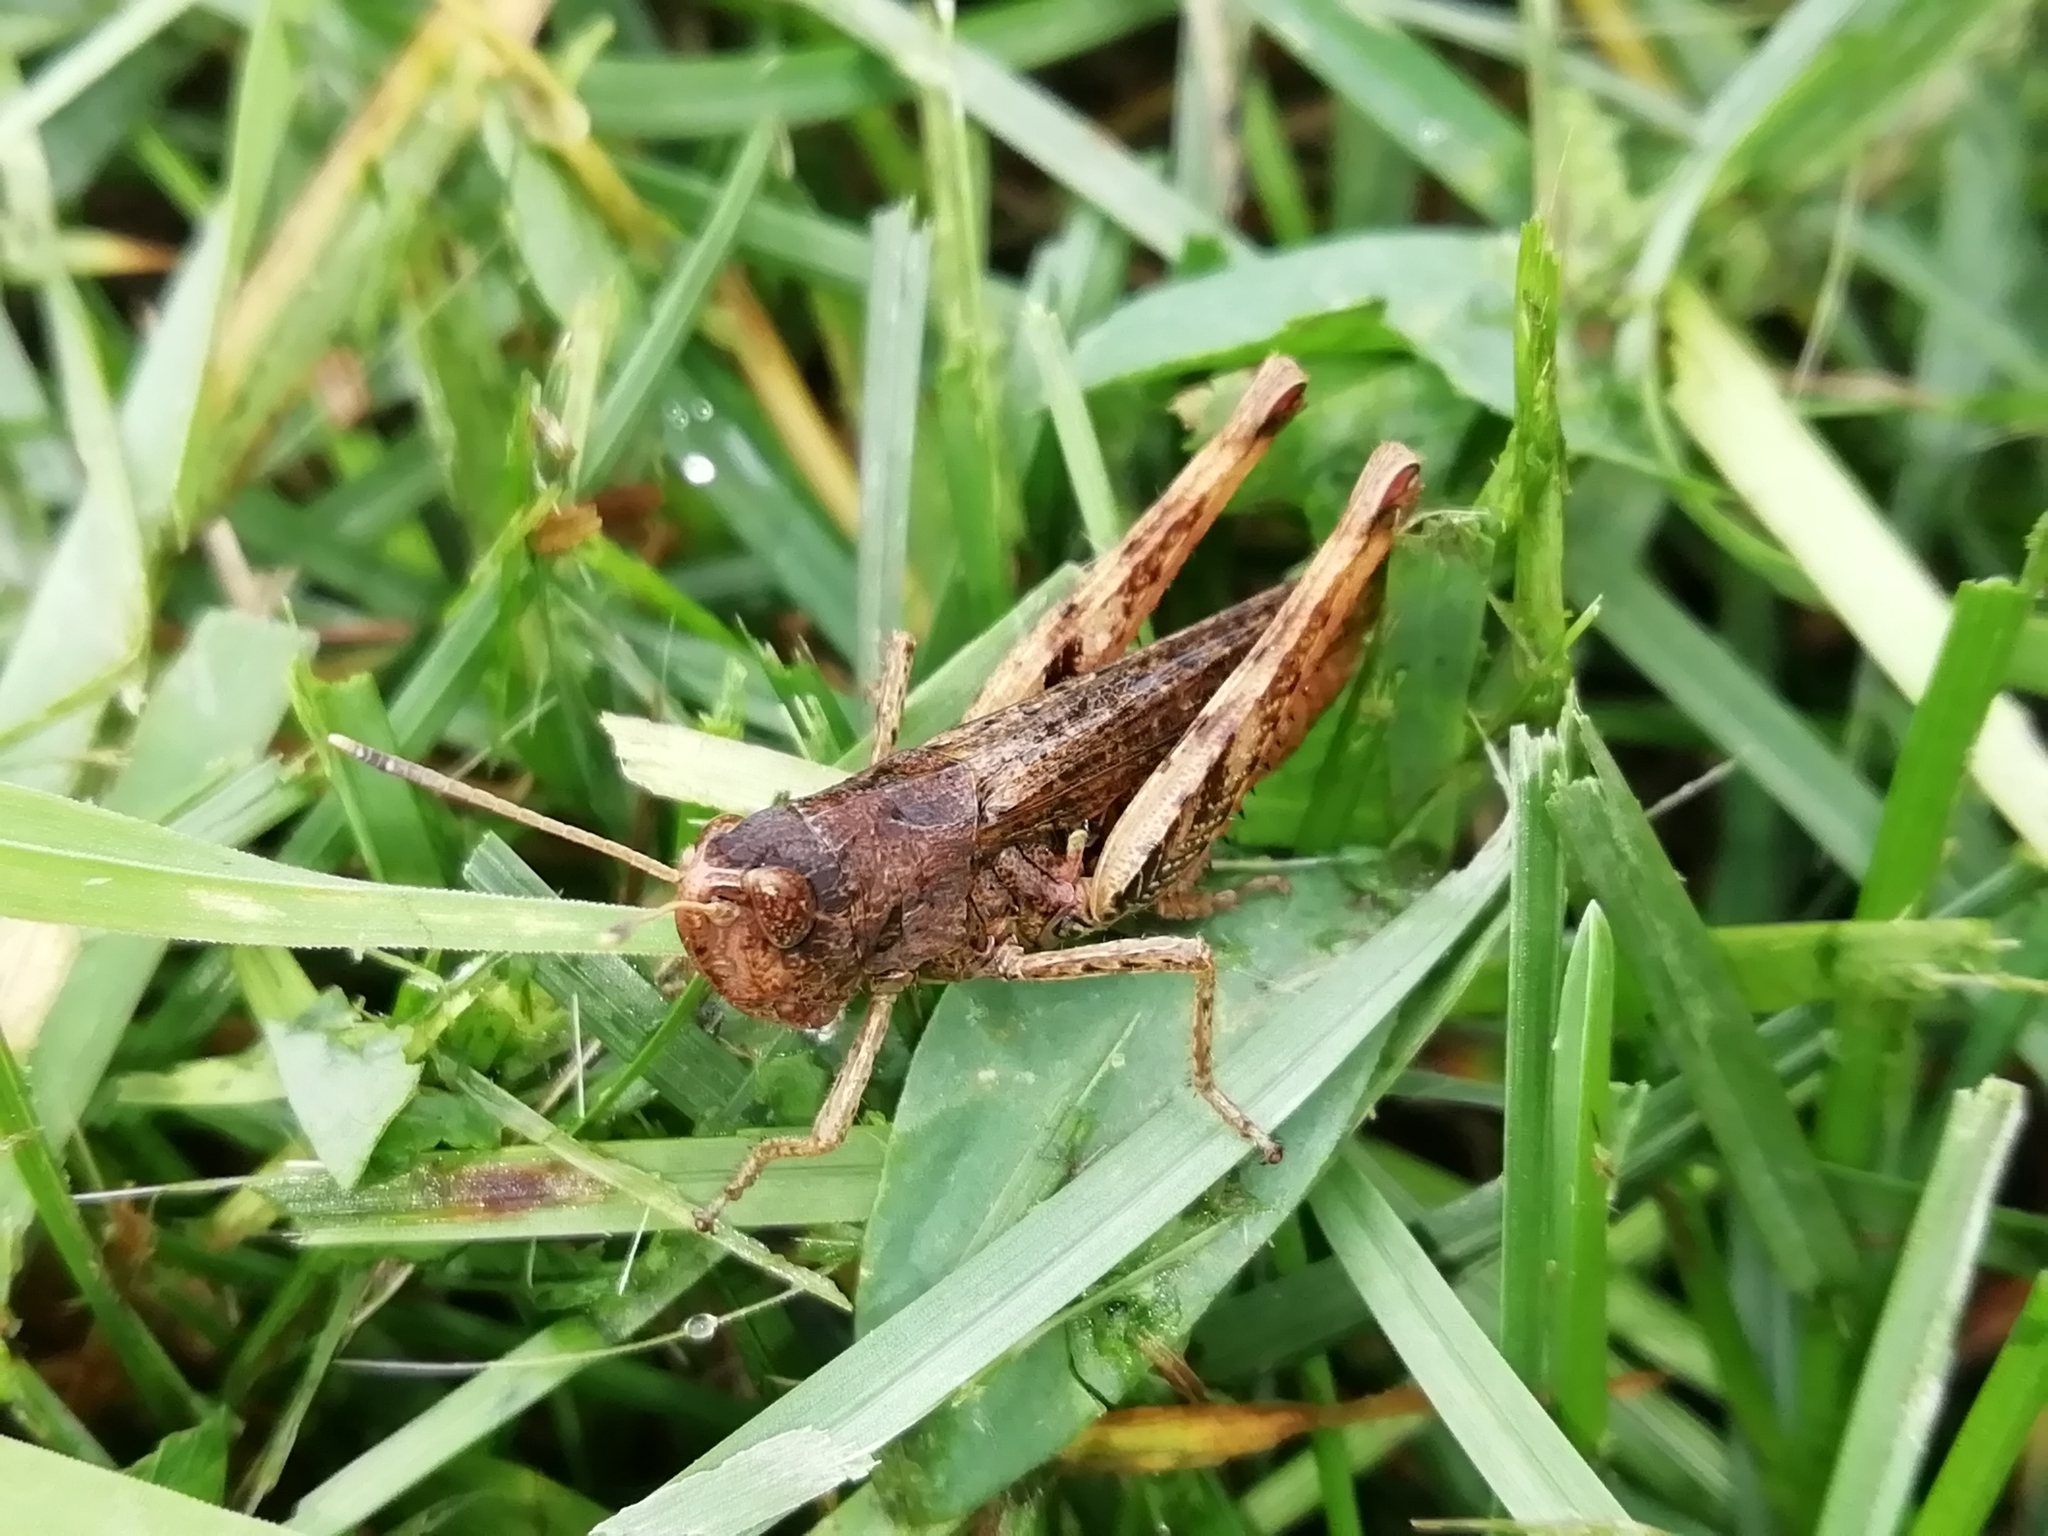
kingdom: Animalia
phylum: Arthropoda
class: Insecta
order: Orthoptera
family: Acrididae
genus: Gomphocerippus
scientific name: Gomphocerippus rufus
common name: Rufous grasshopper
